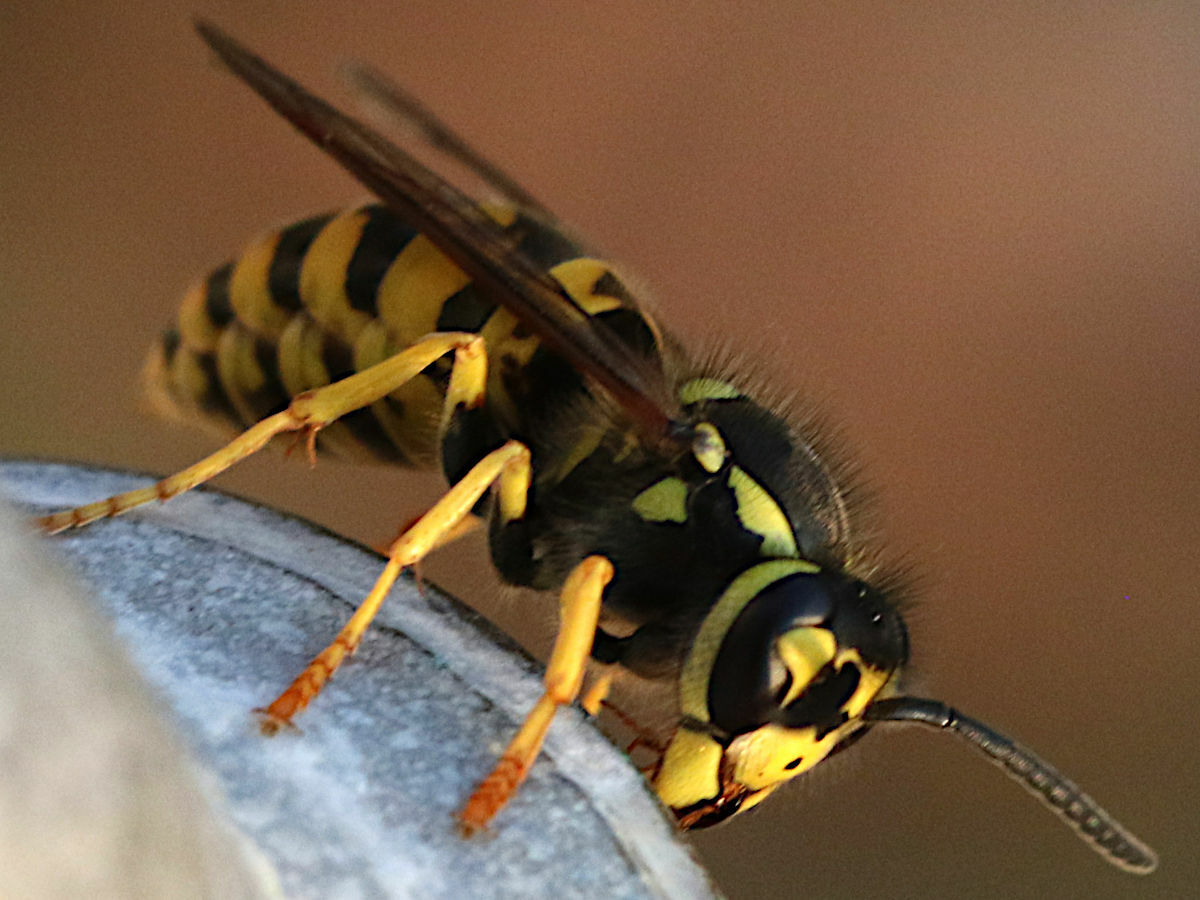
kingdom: Animalia
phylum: Arthropoda
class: Insecta
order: Hymenoptera
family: Vespidae
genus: Vespula
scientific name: Vespula germanica
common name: German wasp
